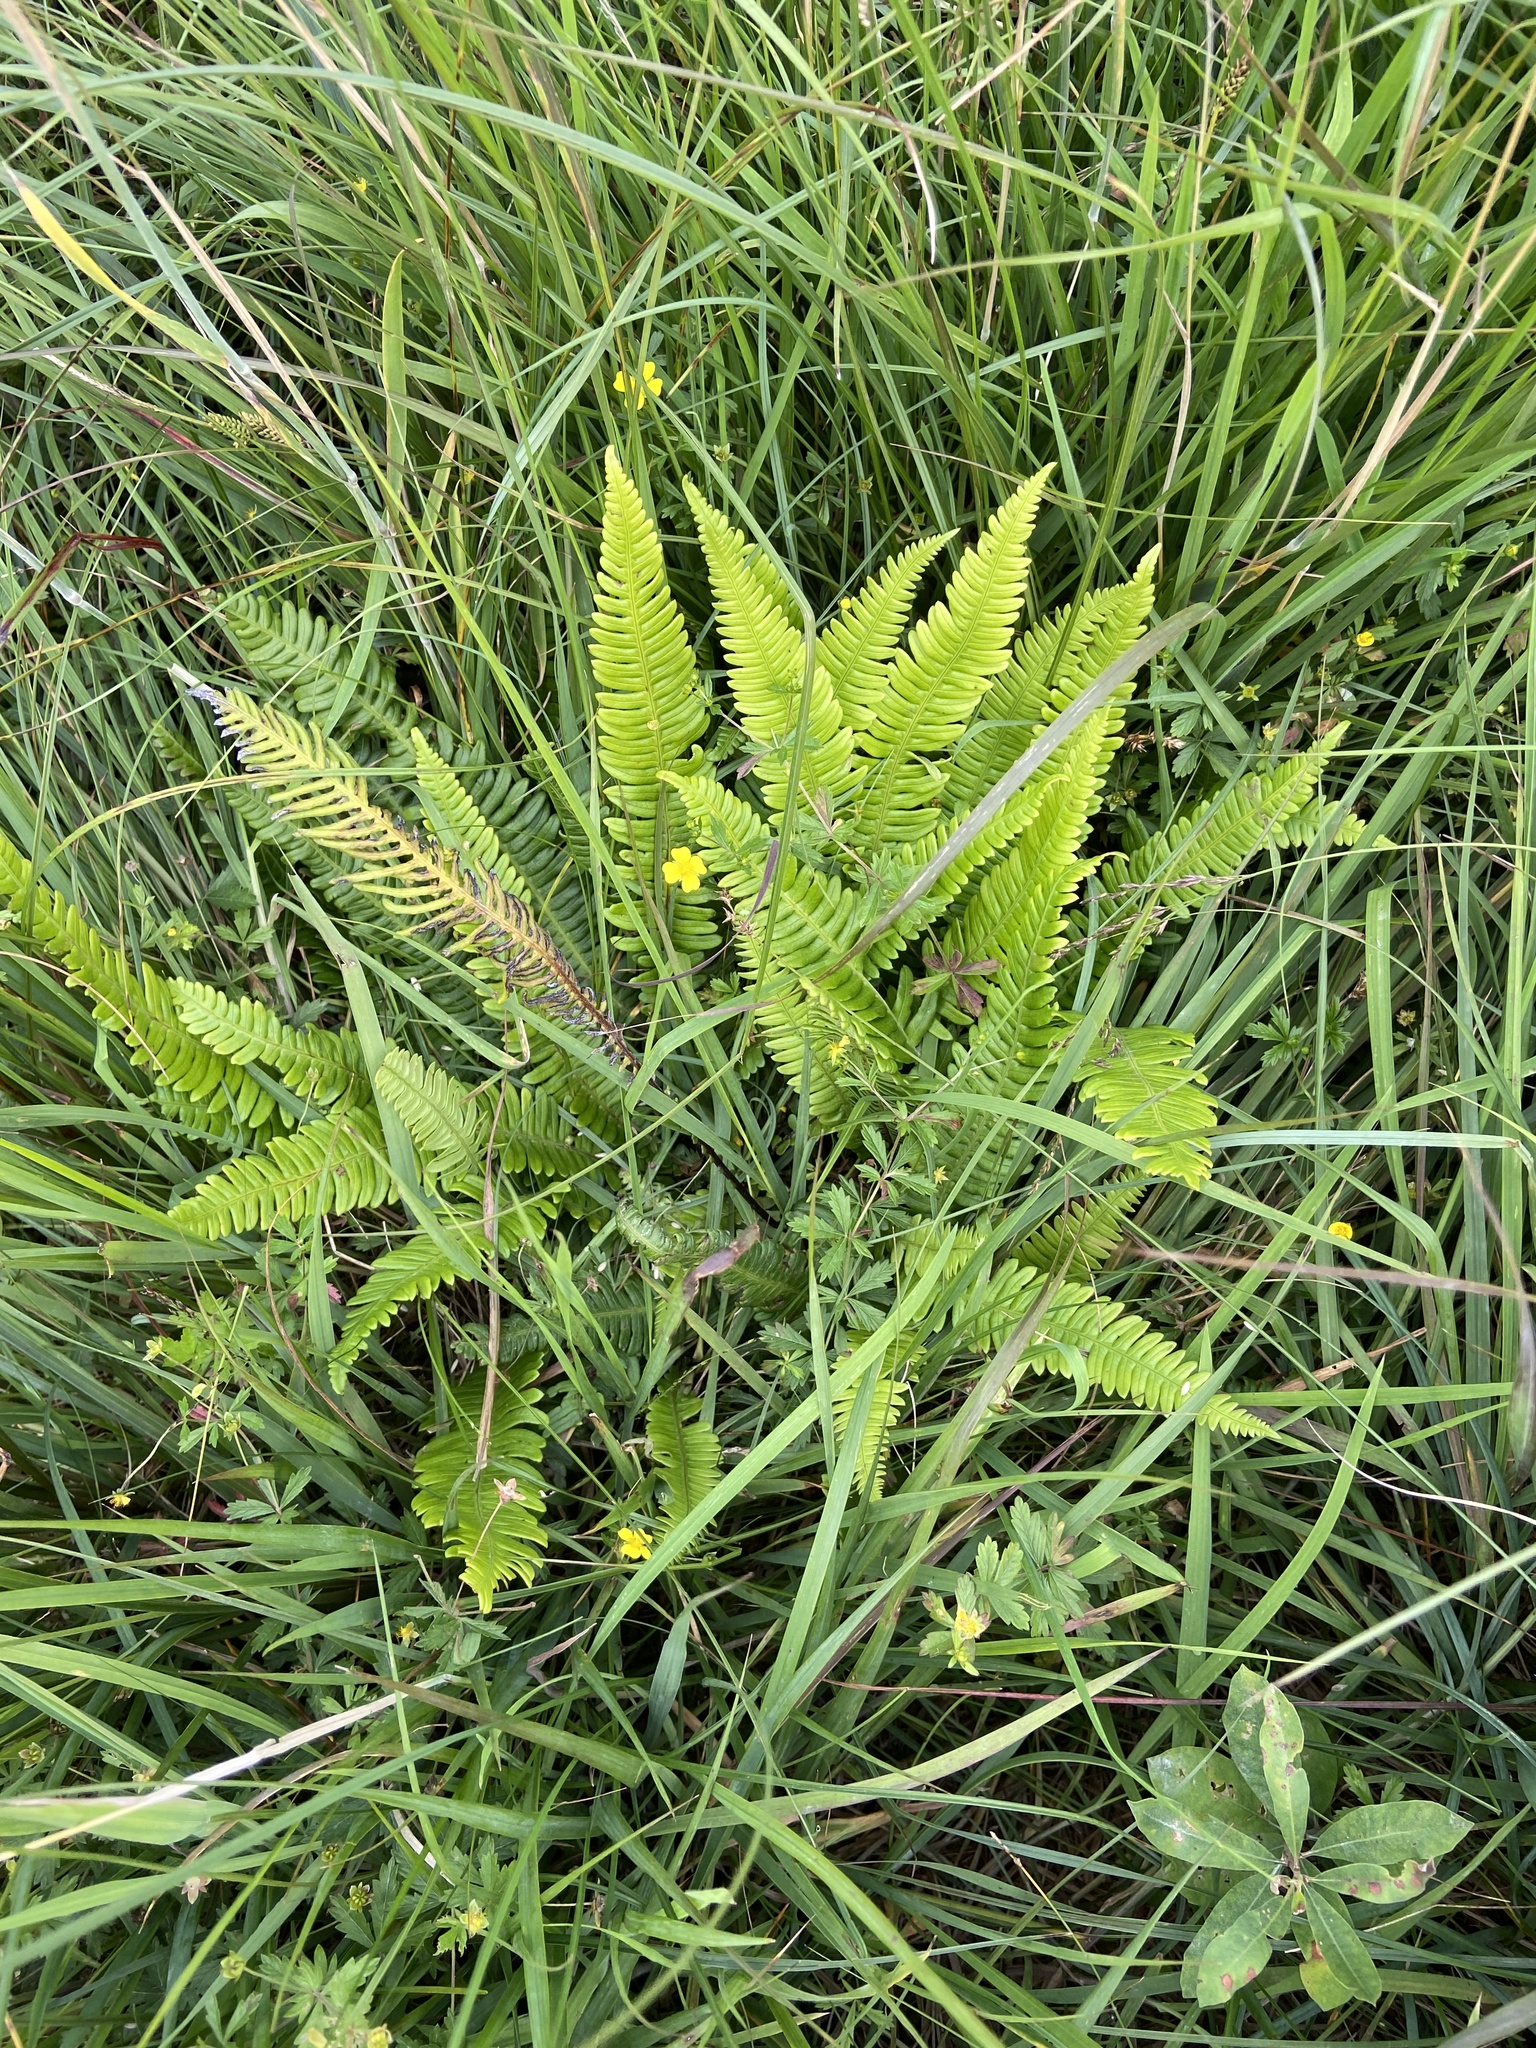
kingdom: Plantae
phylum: Tracheophyta
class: Polypodiopsida
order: Polypodiales
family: Blechnaceae
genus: Struthiopteris
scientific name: Struthiopteris spicant
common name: Deer fern
